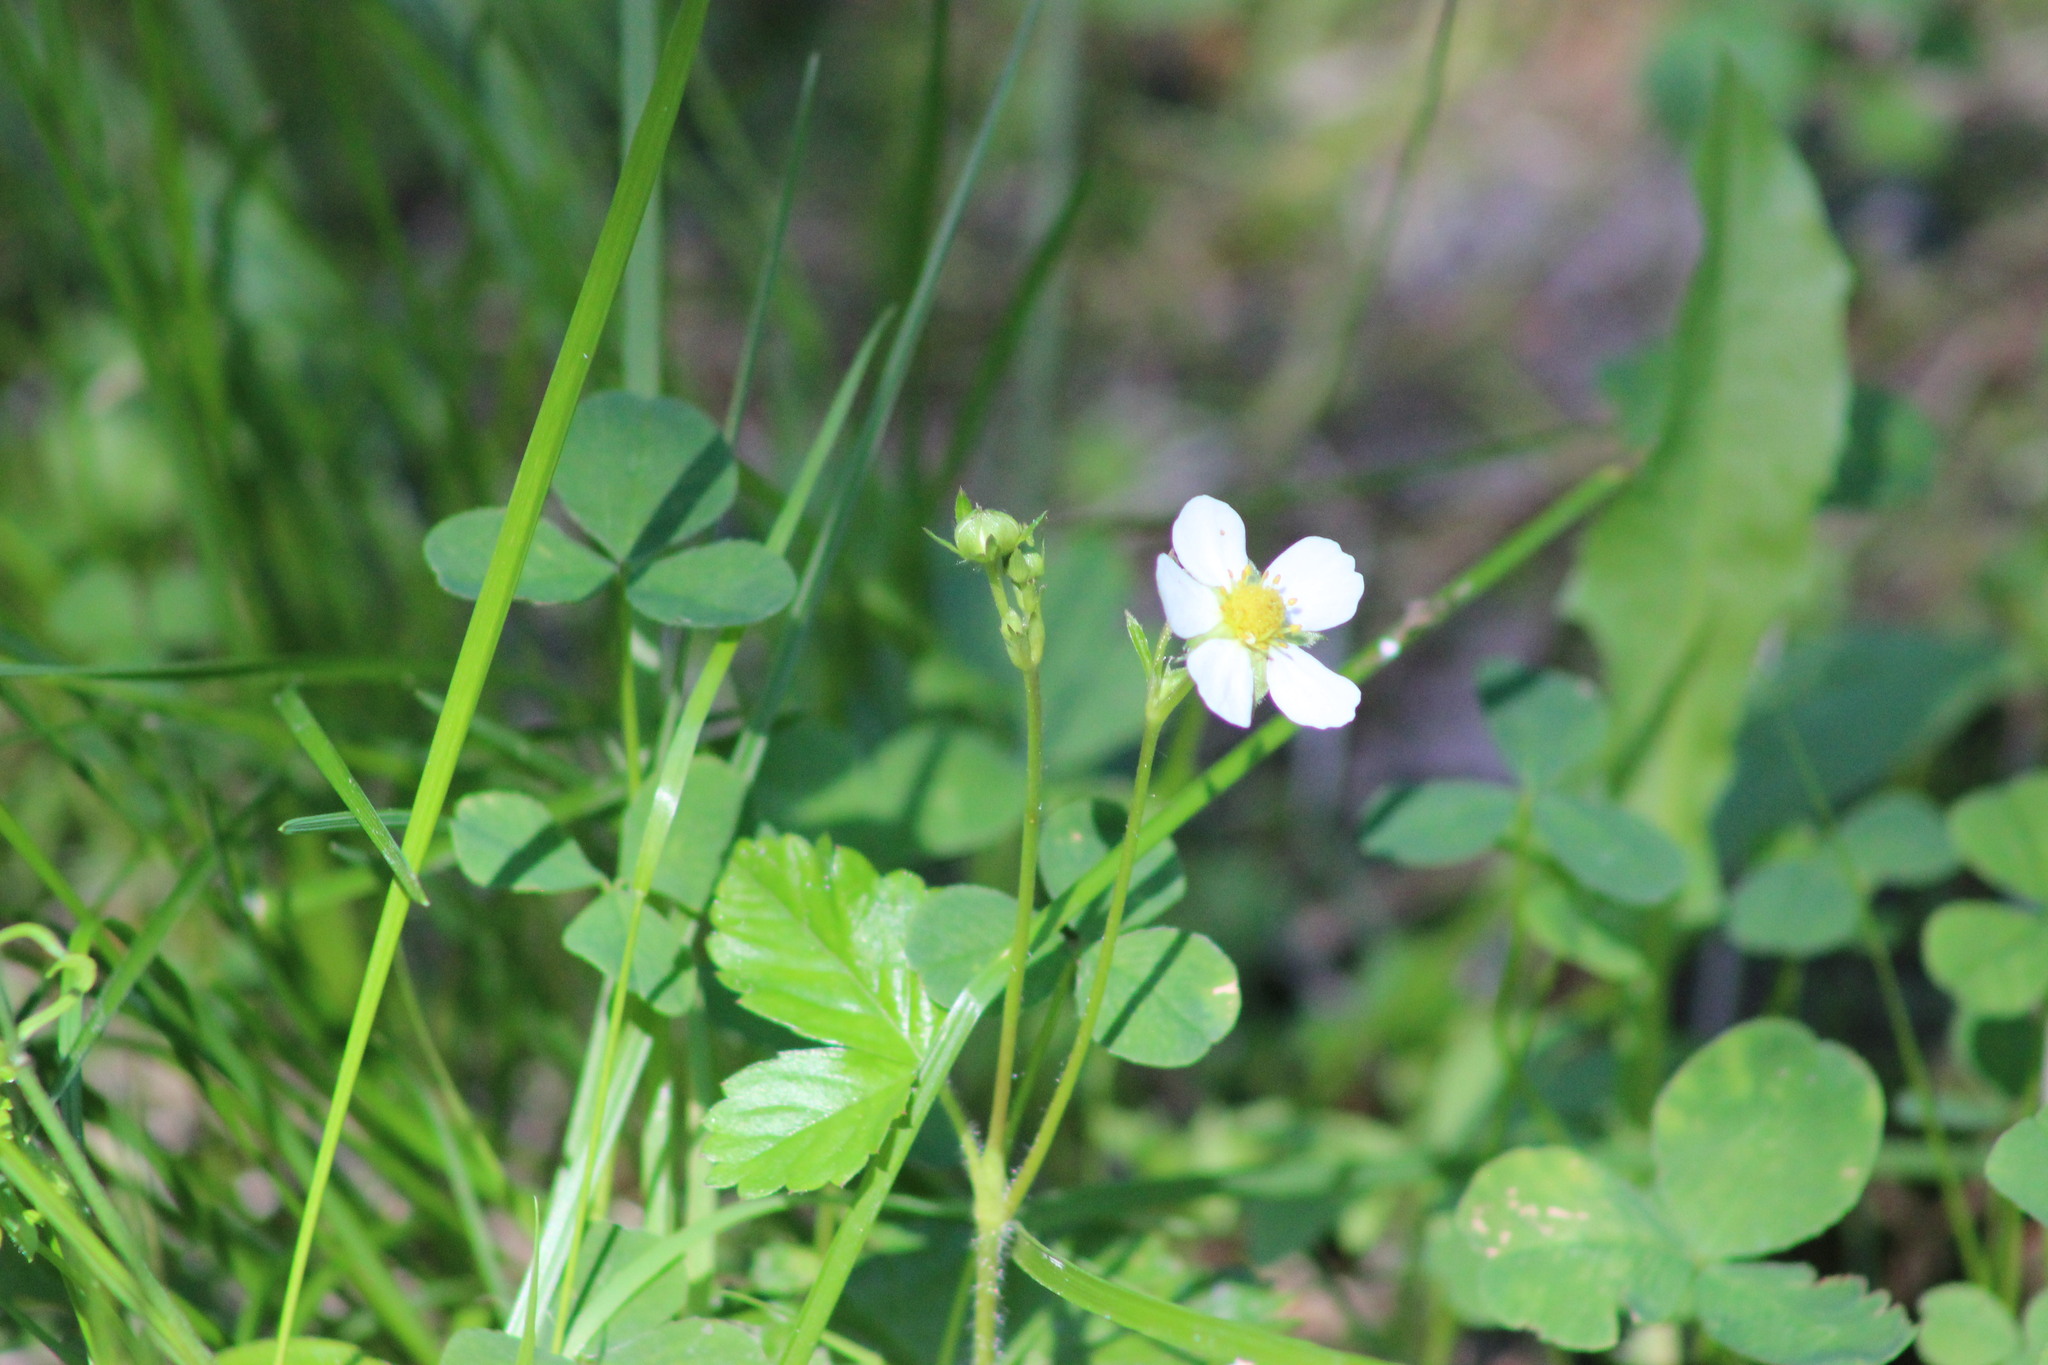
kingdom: Plantae
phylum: Tracheophyta
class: Magnoliopsida
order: Rosales
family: Rosaceae
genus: Fragaria
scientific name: Fragaria vesca
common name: Wild strawberry
